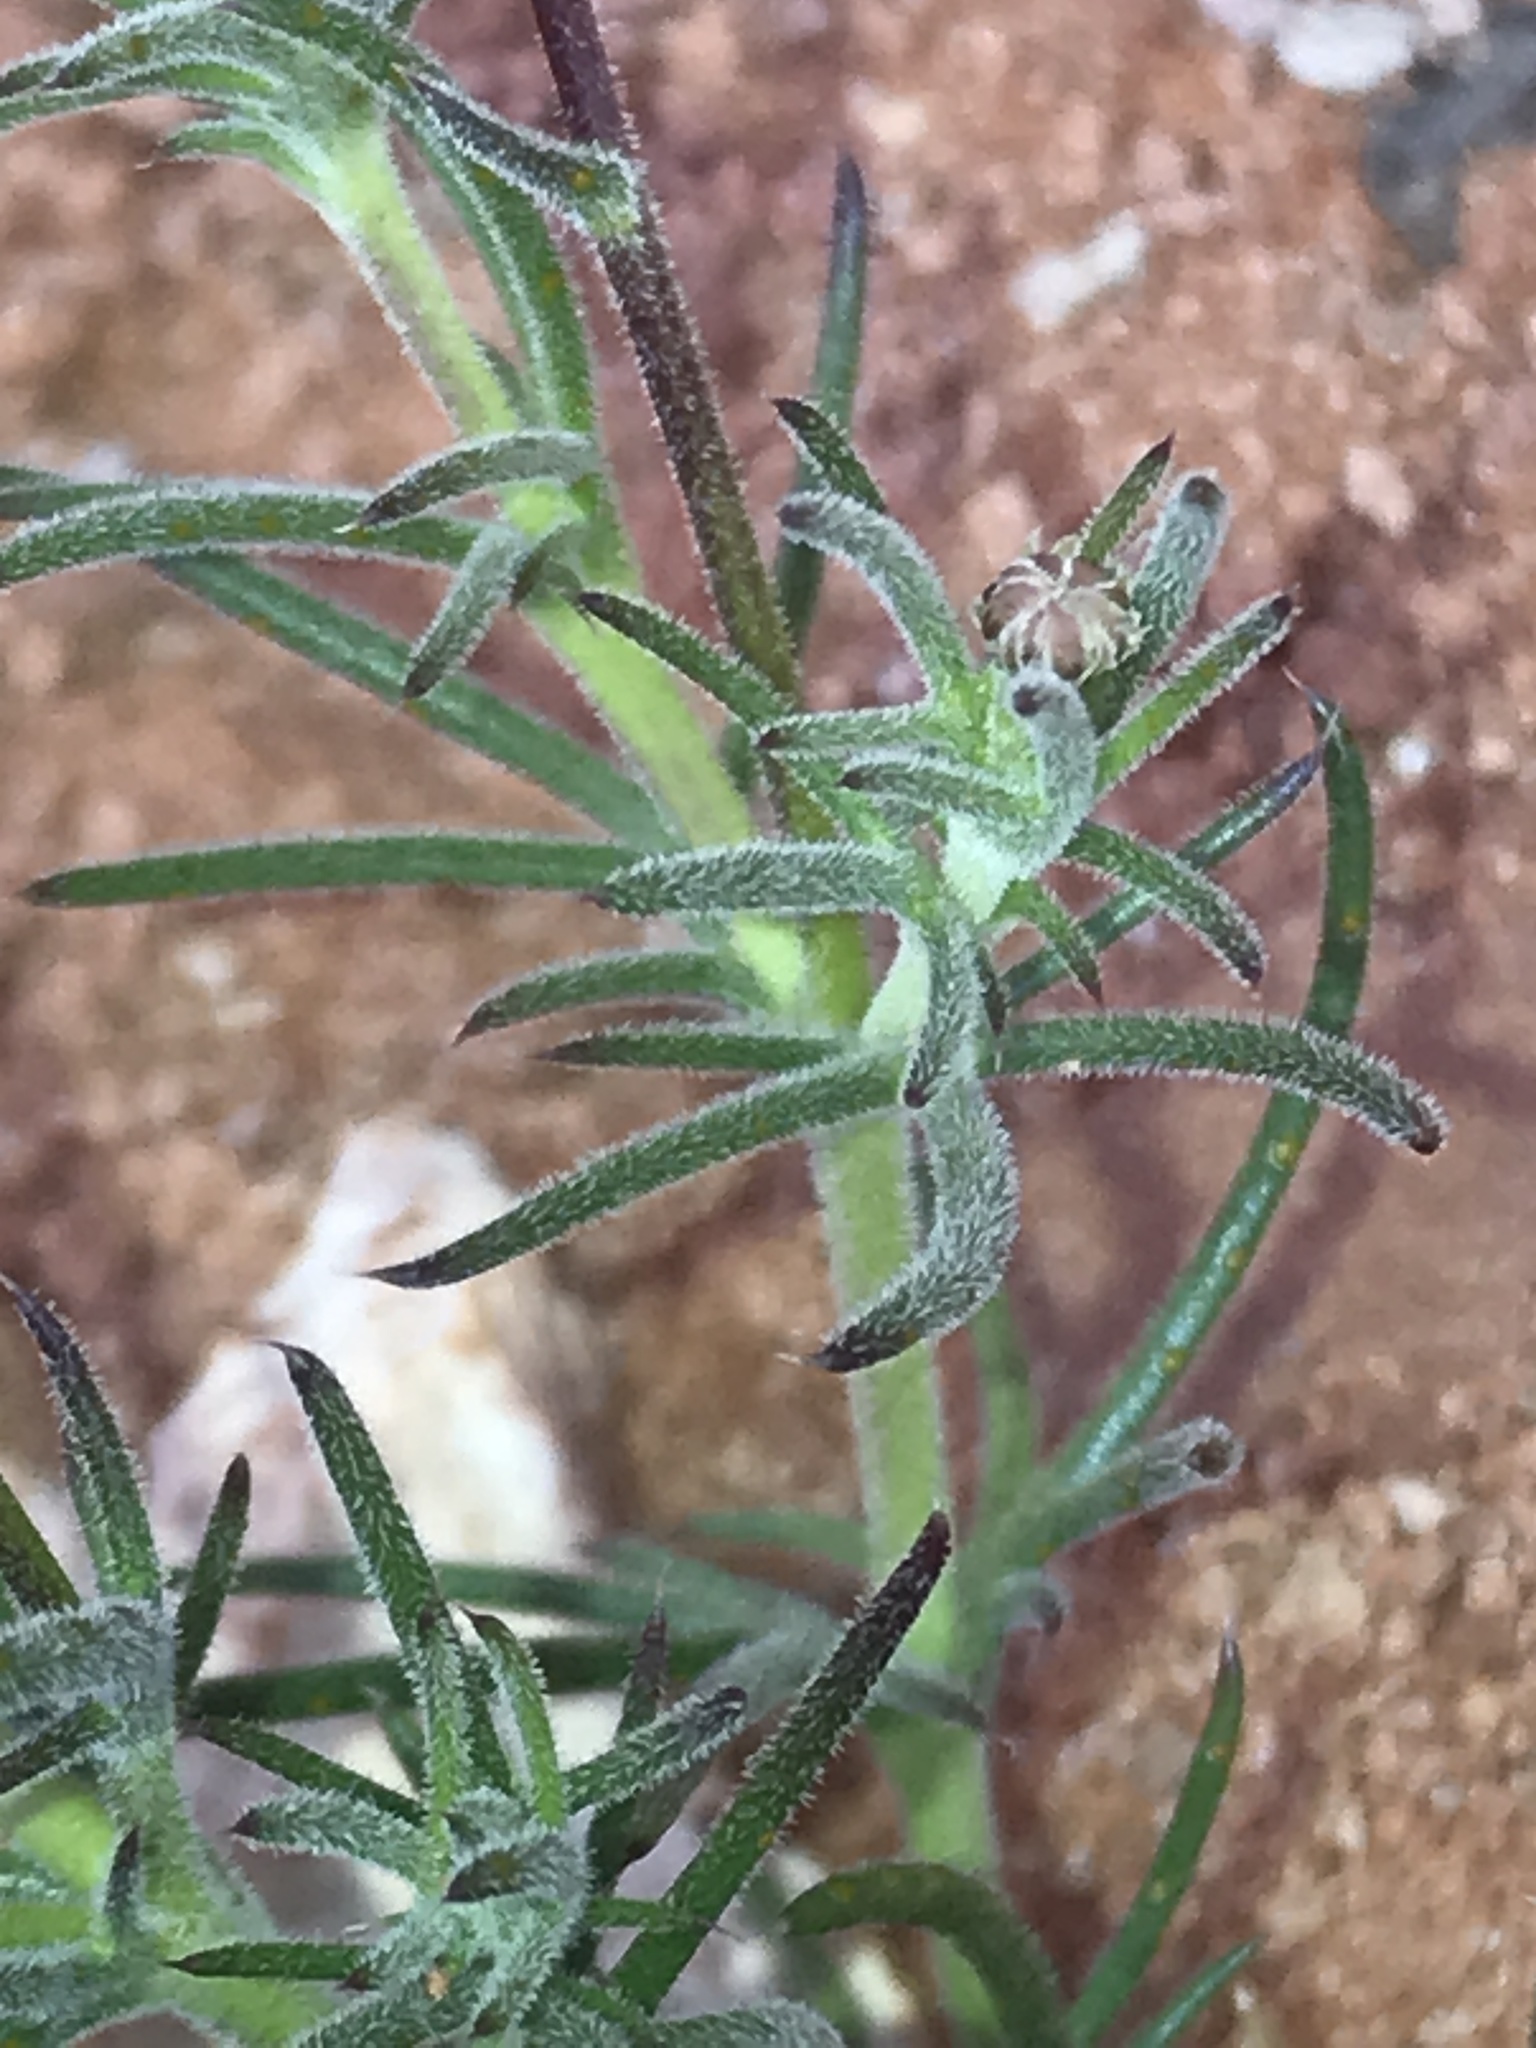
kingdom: Plantae
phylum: Tracheophyta
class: Magnoliopsida
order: Asterales
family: Asteraceae
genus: Thymophylla
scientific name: Thymophylla pentachaeta
